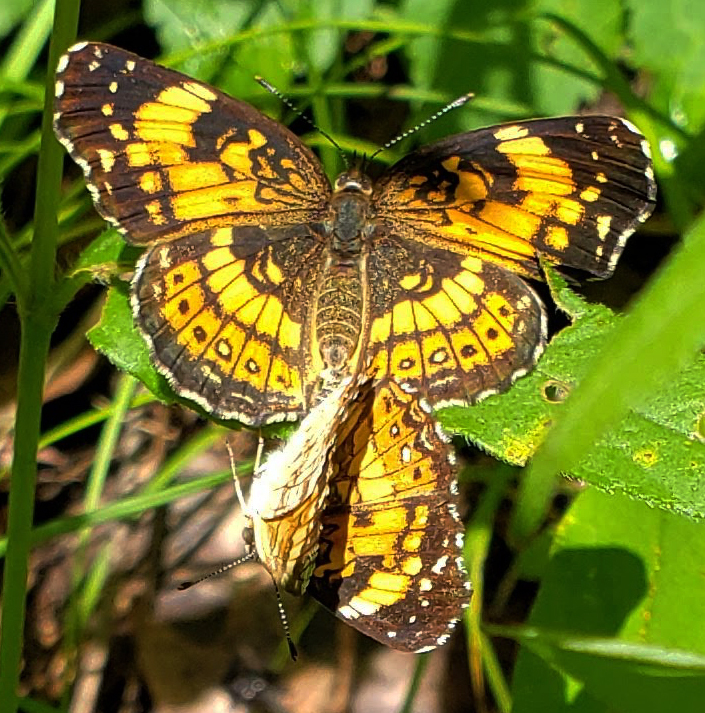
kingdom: Animalia
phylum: Arthropoda
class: Insecta
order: Lepidoptera
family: Nymphalidae
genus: Chlosyne
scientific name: Chlosyne nycteis
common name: Silvery checkerspot
